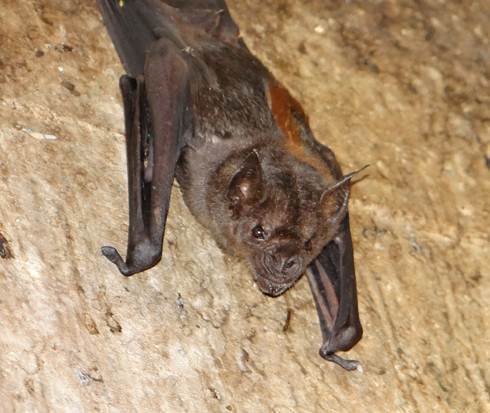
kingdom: Animalia
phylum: Chordata
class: Mammalia
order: Chiroptera
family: Phyllostomidae
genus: Phyllostomus
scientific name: Phyllostomus hastatus
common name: Greater spear-nosed bat
